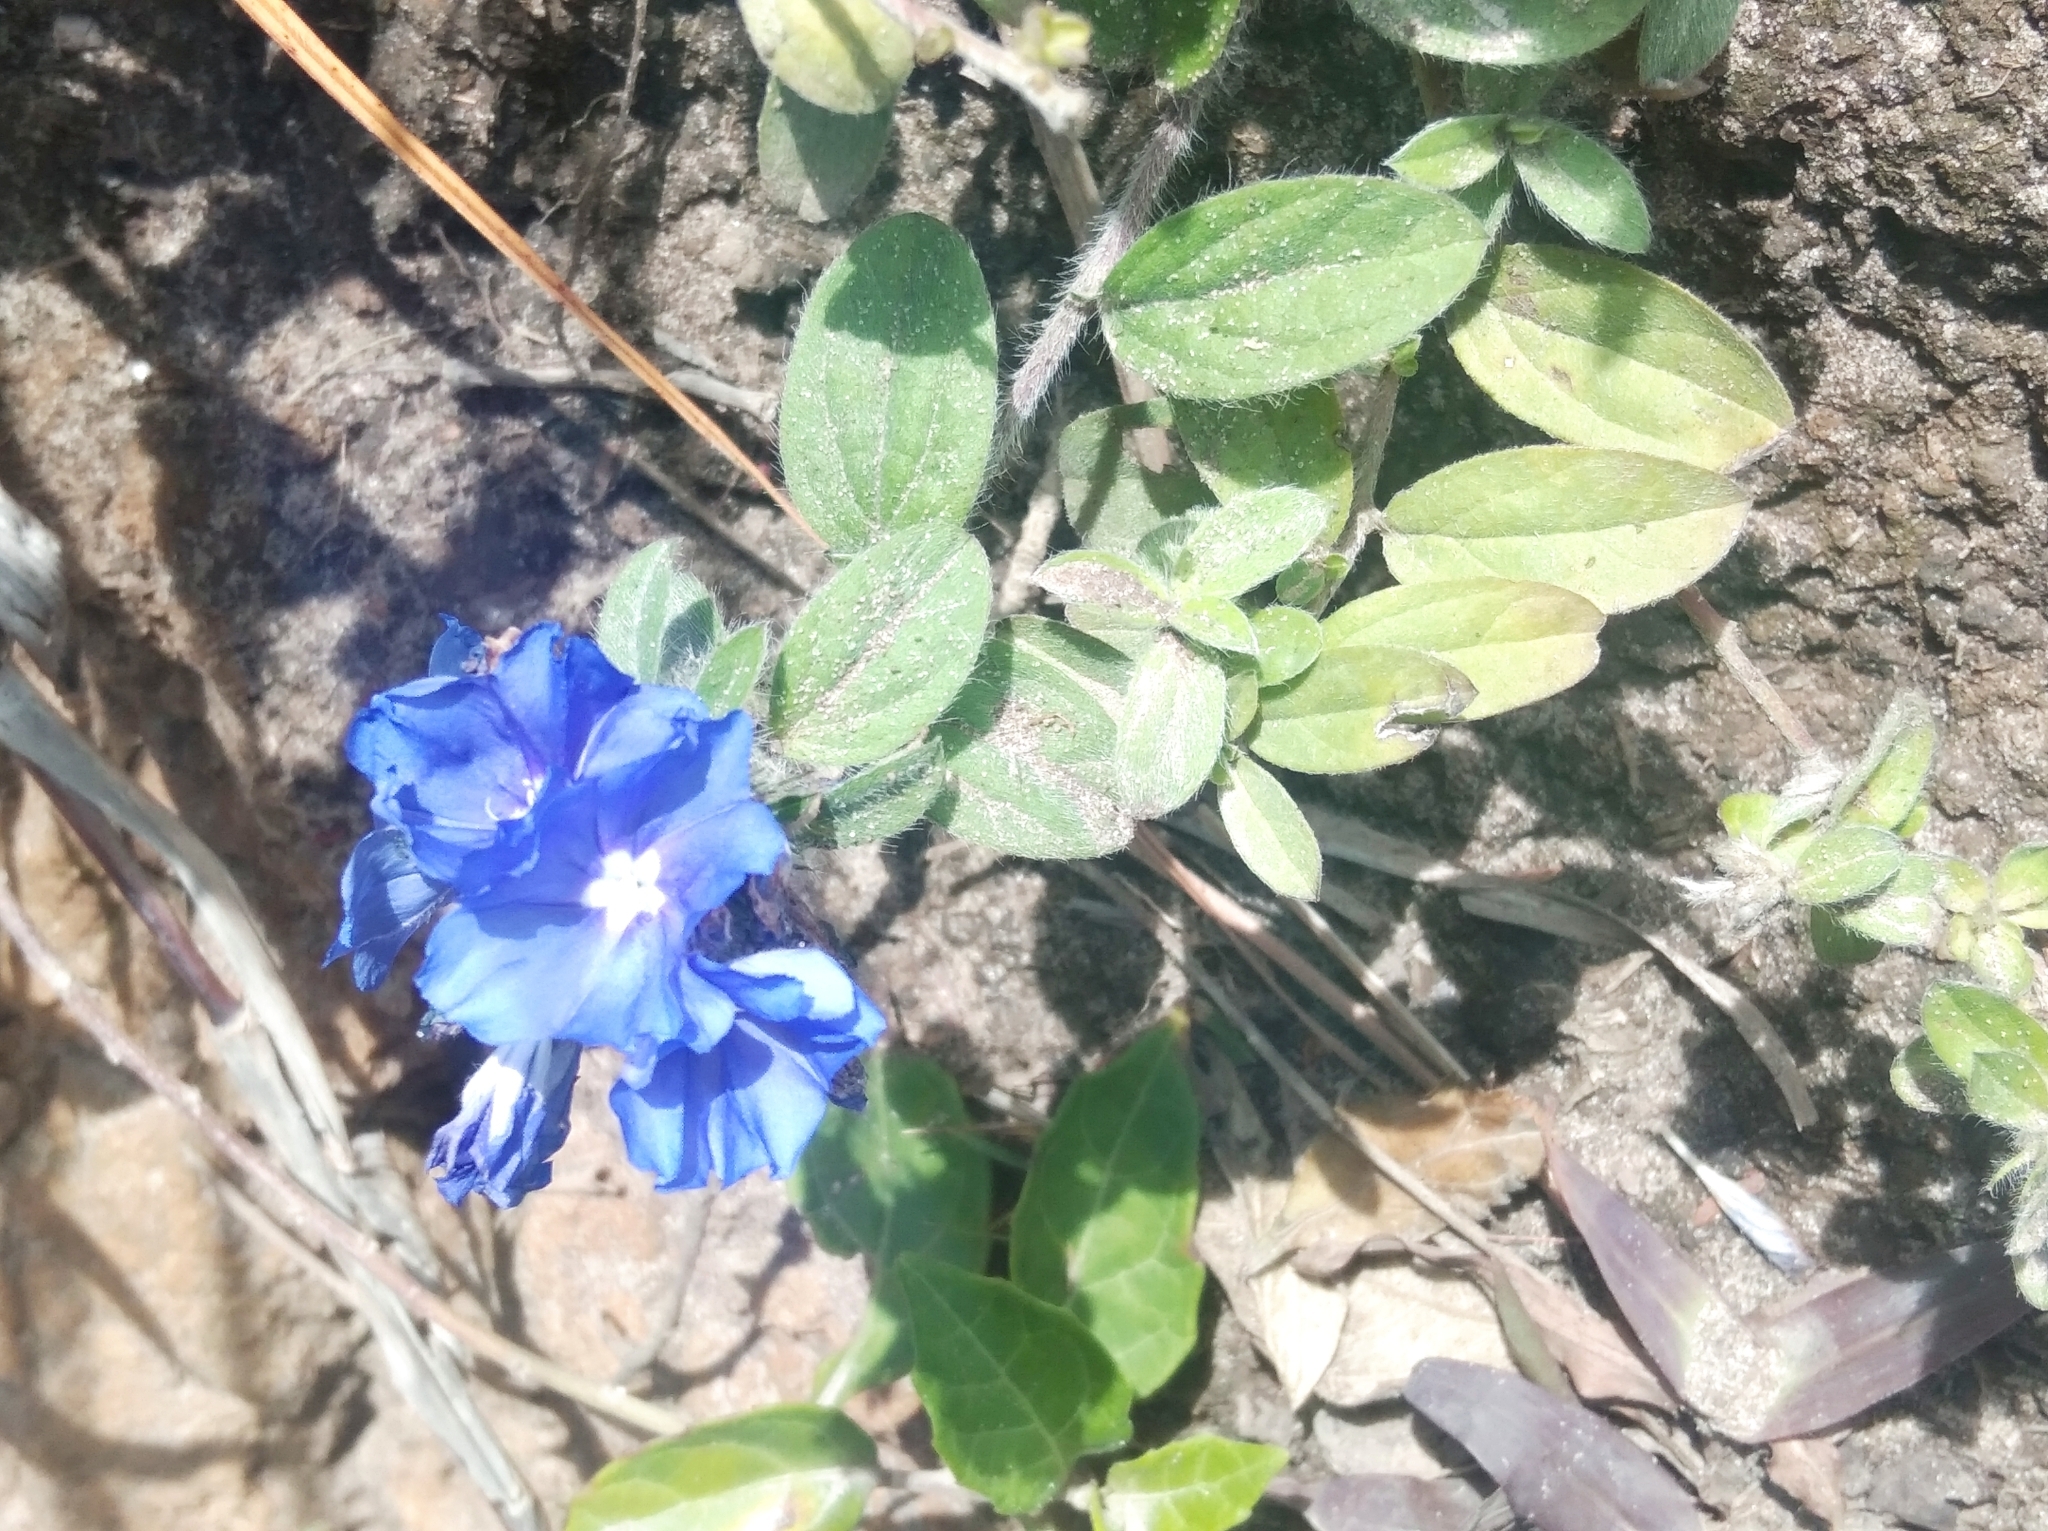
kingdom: Plantae
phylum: Tracheophyta
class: Magnoliopsida
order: Solanales
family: Convolvulaceae
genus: Evolvulus
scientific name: Evolvulus glomeratus
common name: Brazilian dwarf morning-glory
